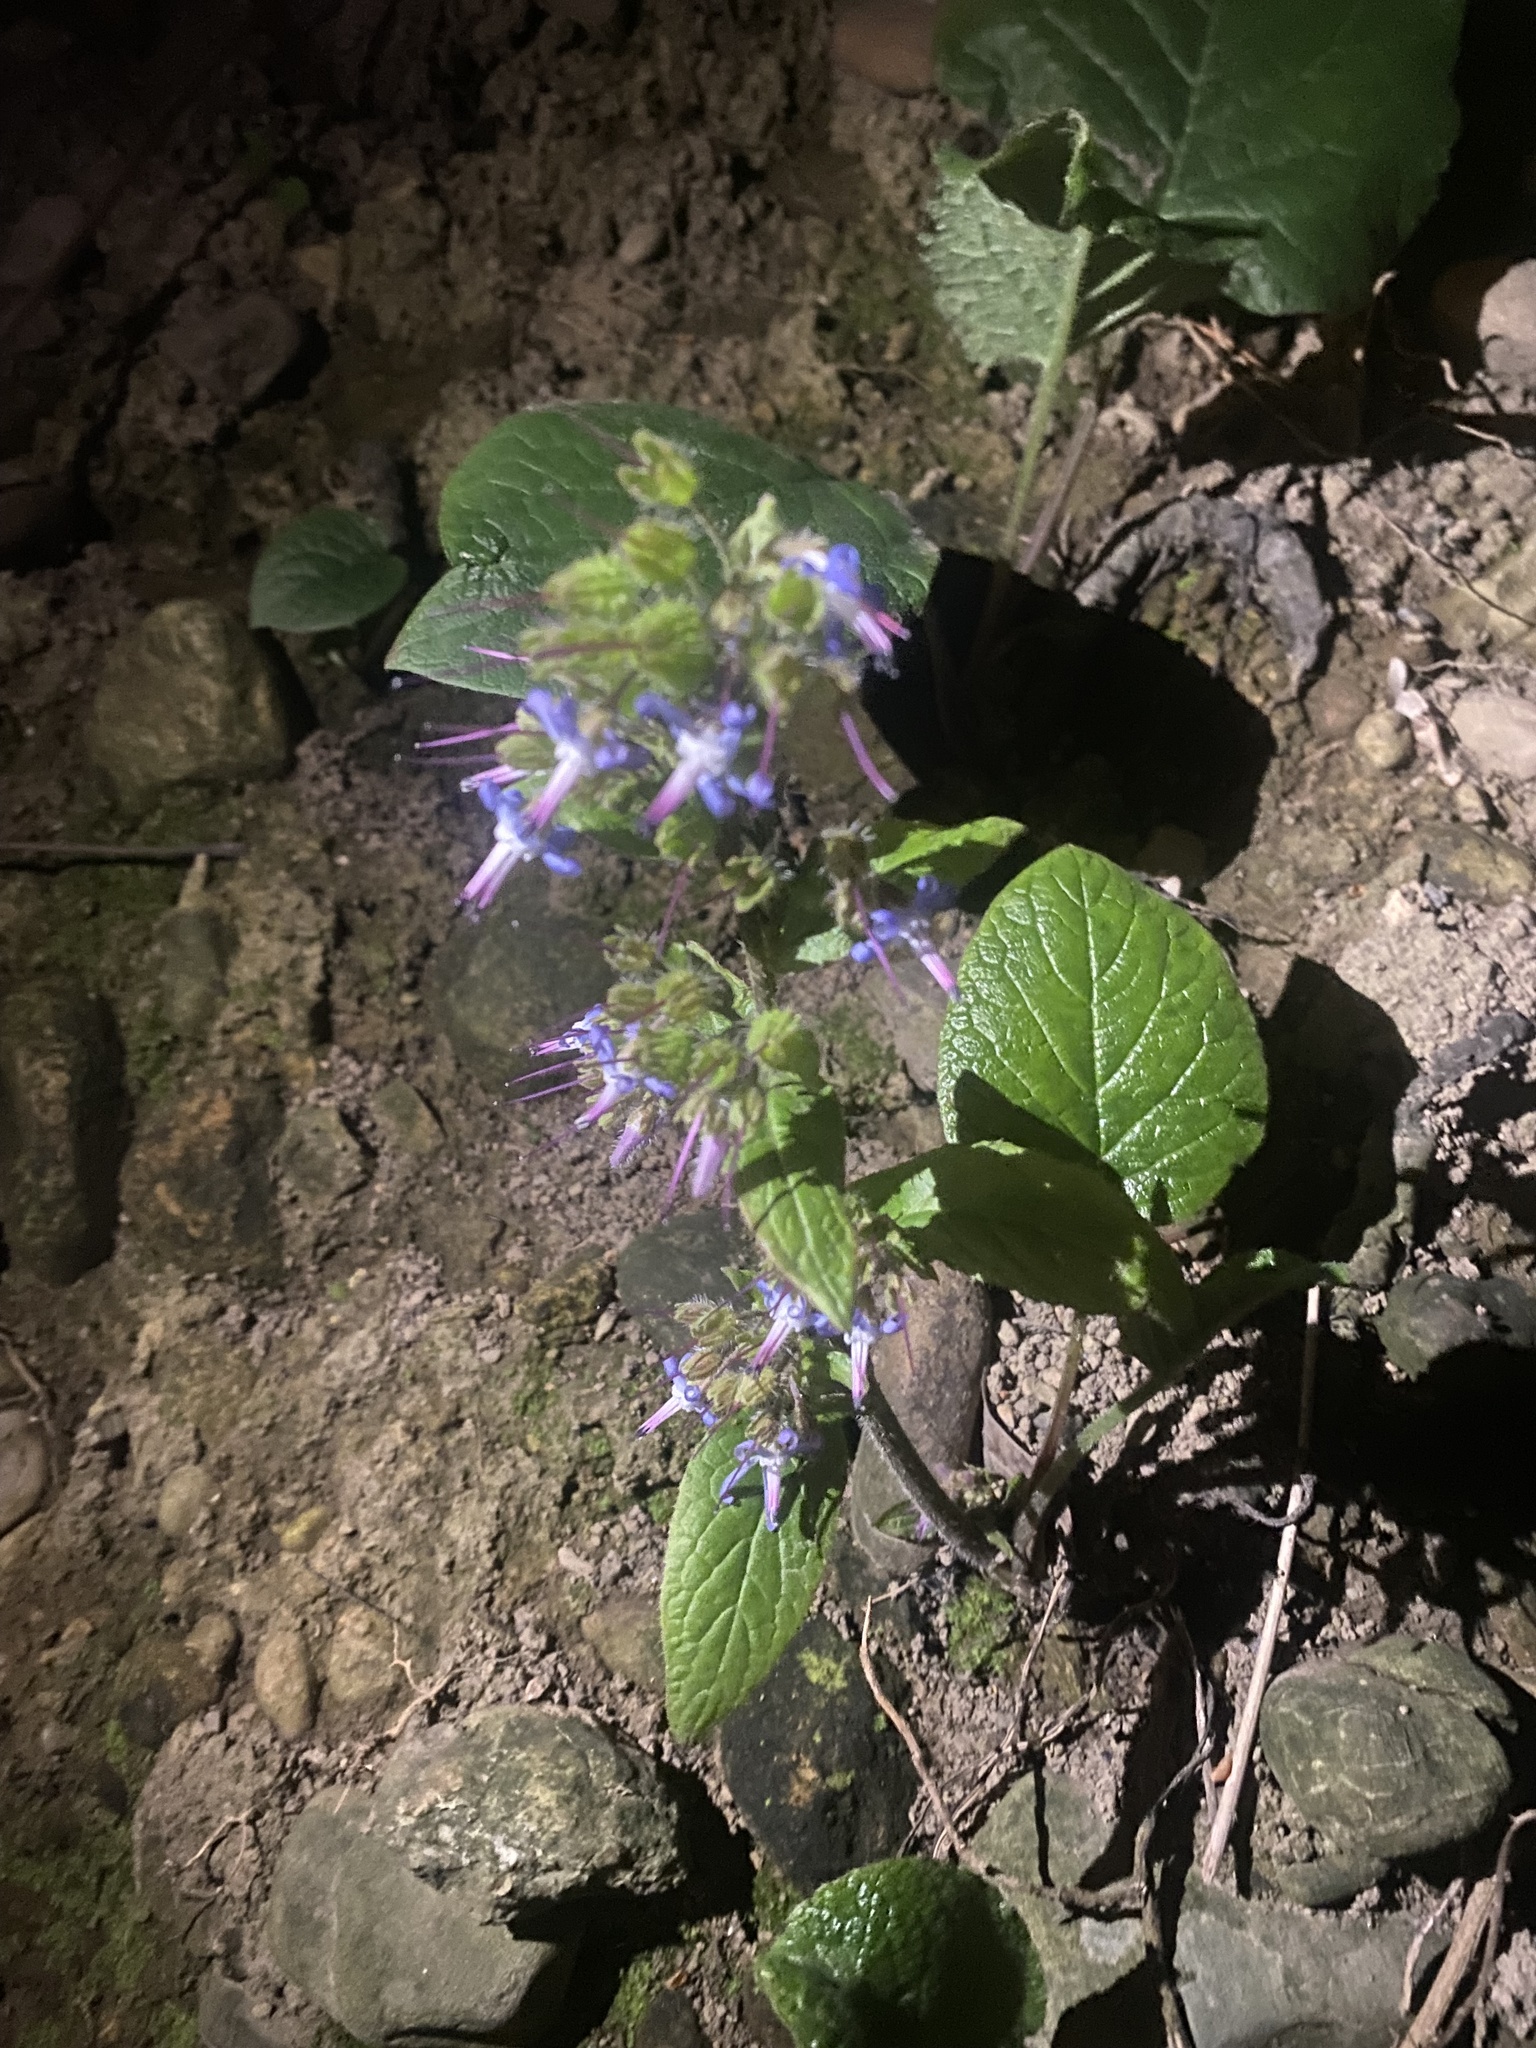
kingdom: Plantae
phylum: Tracheophyta
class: Magnoliopsida
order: Boraginales
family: Boraginaceae
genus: Trachystemon
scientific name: Trachystemon orientale
